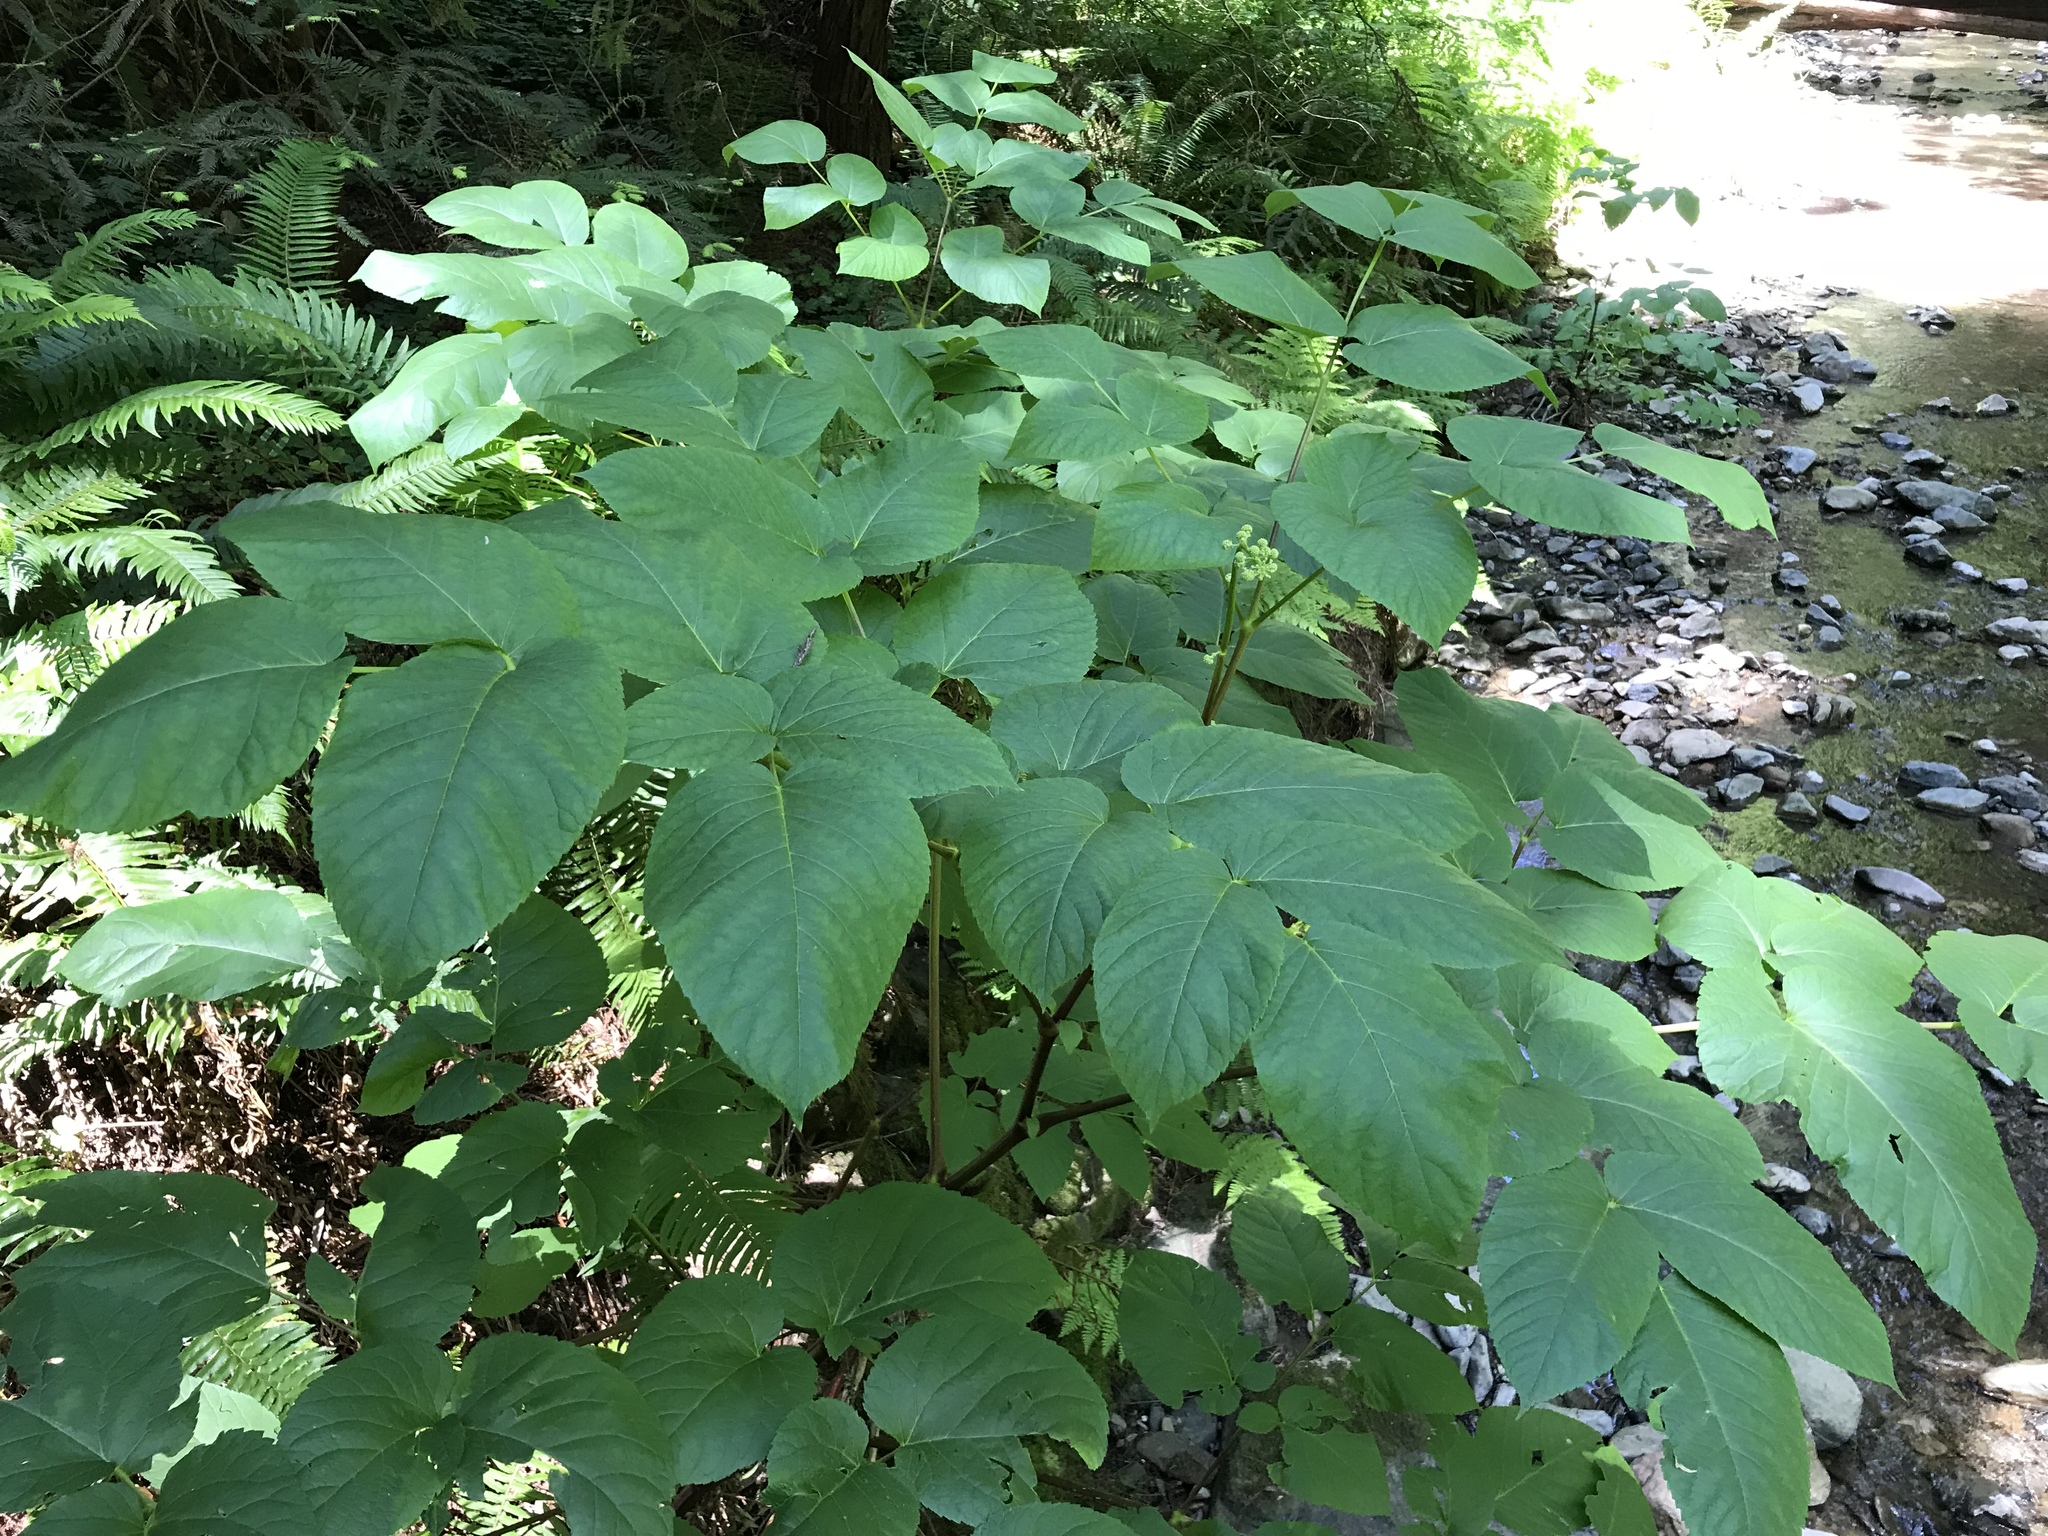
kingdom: Plantae
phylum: Tracheophyta
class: Magnoliopsida
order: Apiales
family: Araliaceae
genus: Aralia
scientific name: Aralia californica
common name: California-ginseng
